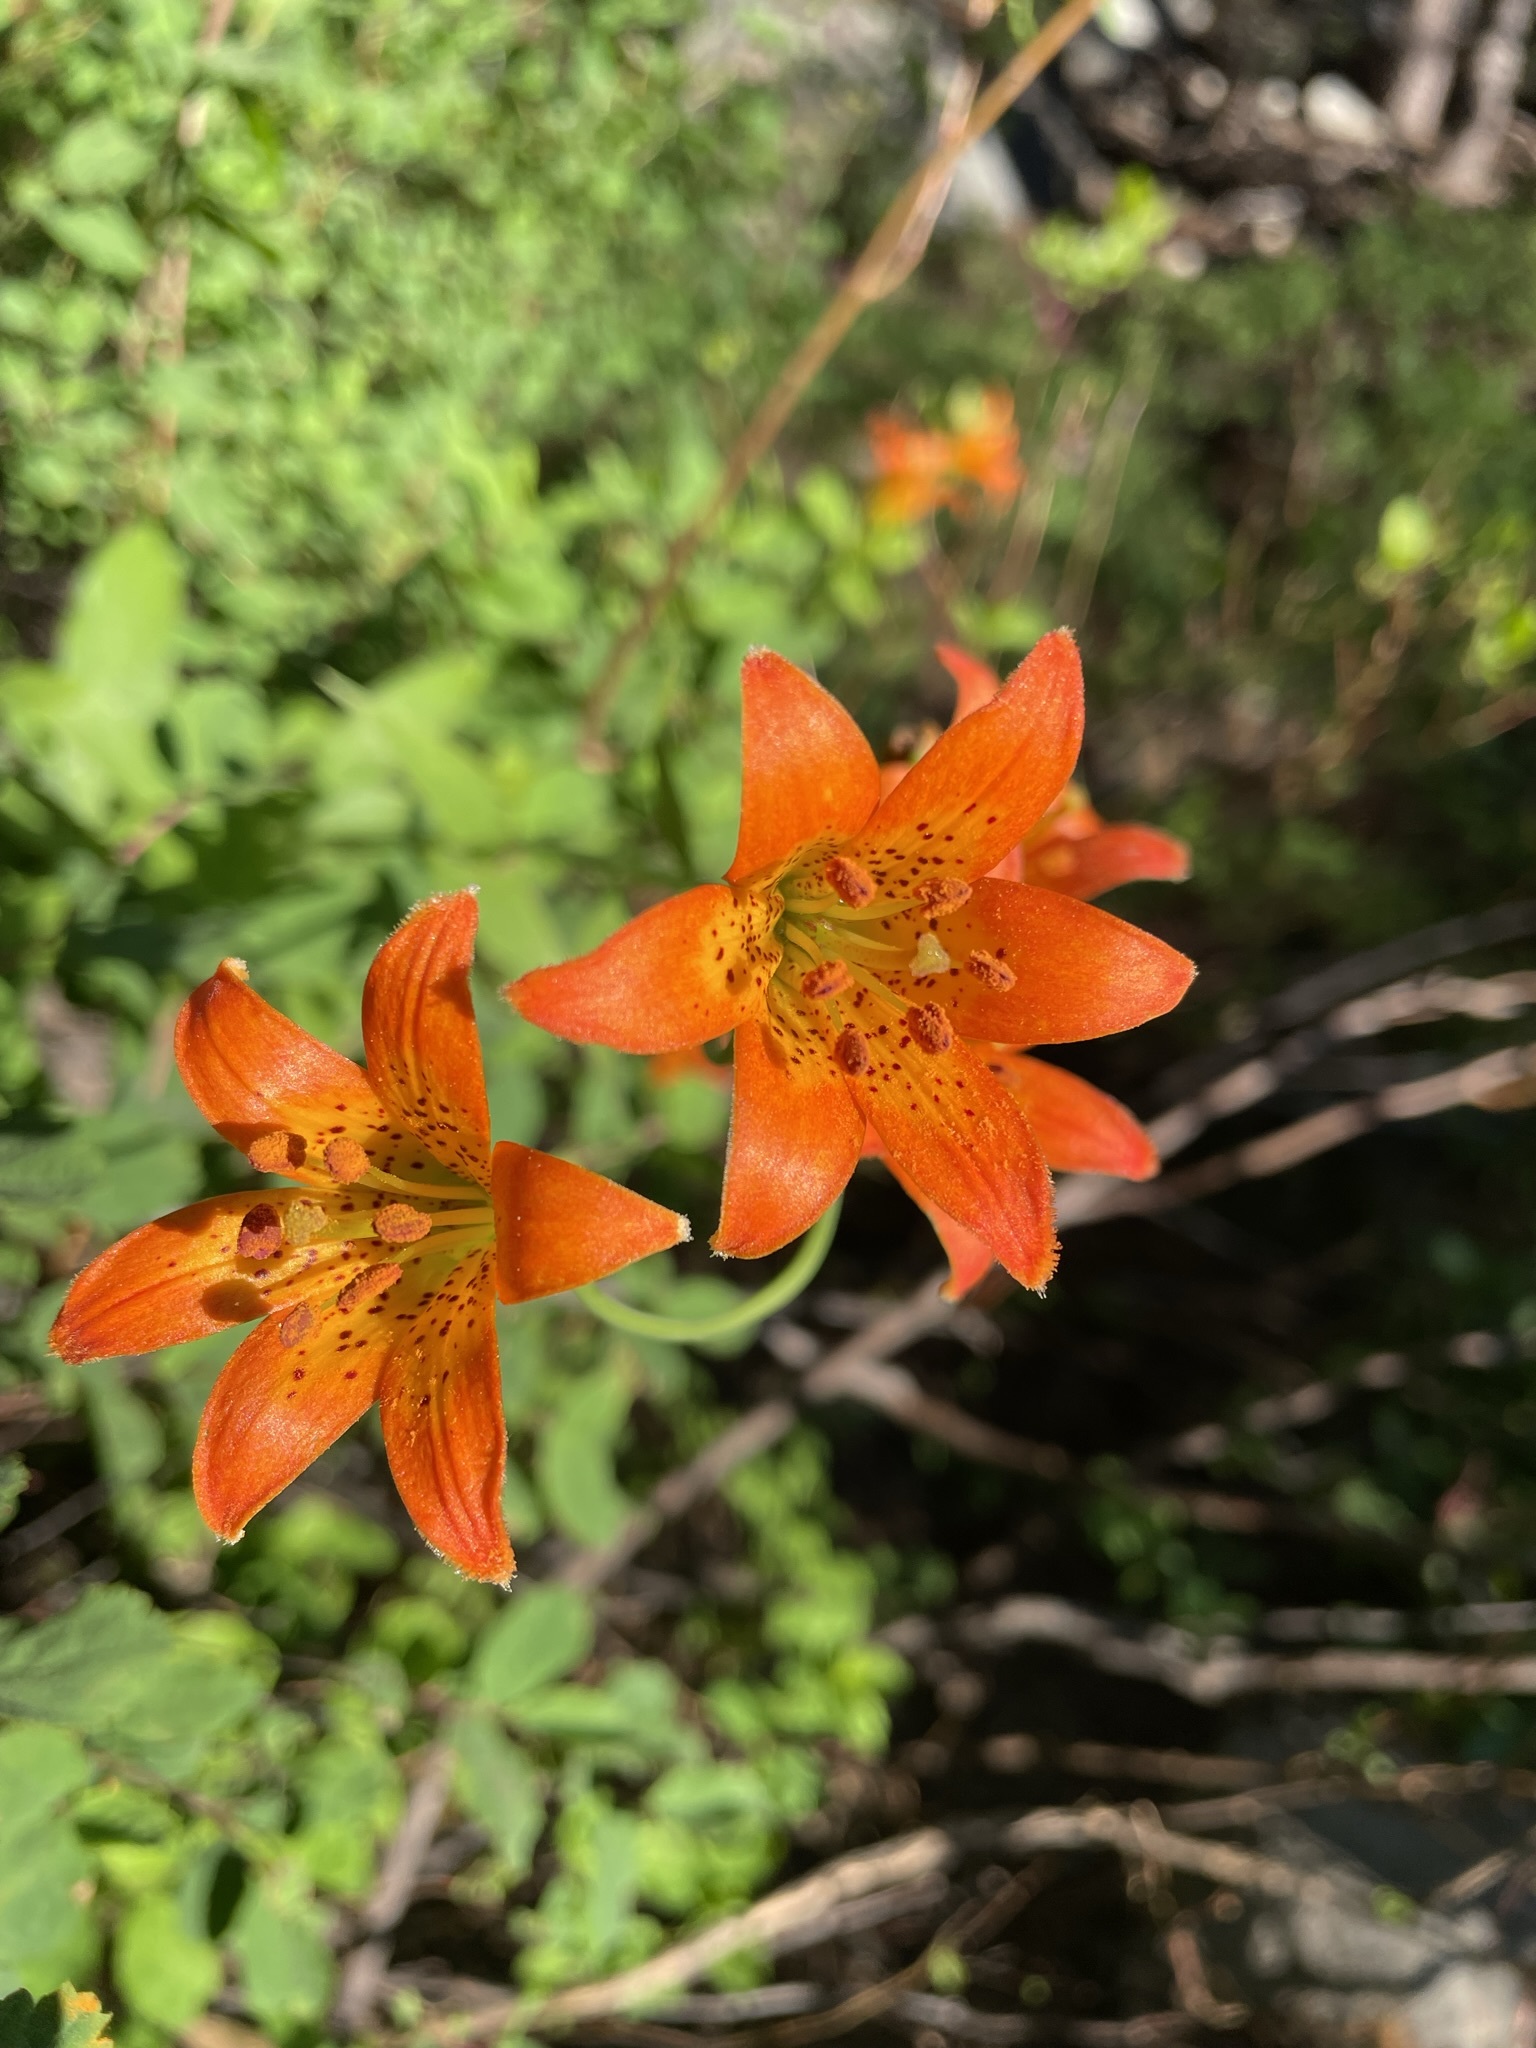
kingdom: Plantae
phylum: Tracheophyta
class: Liliopsida
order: Liliales
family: Liliaceae
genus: Lilium
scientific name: Lilium parvum
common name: Alpine lily
